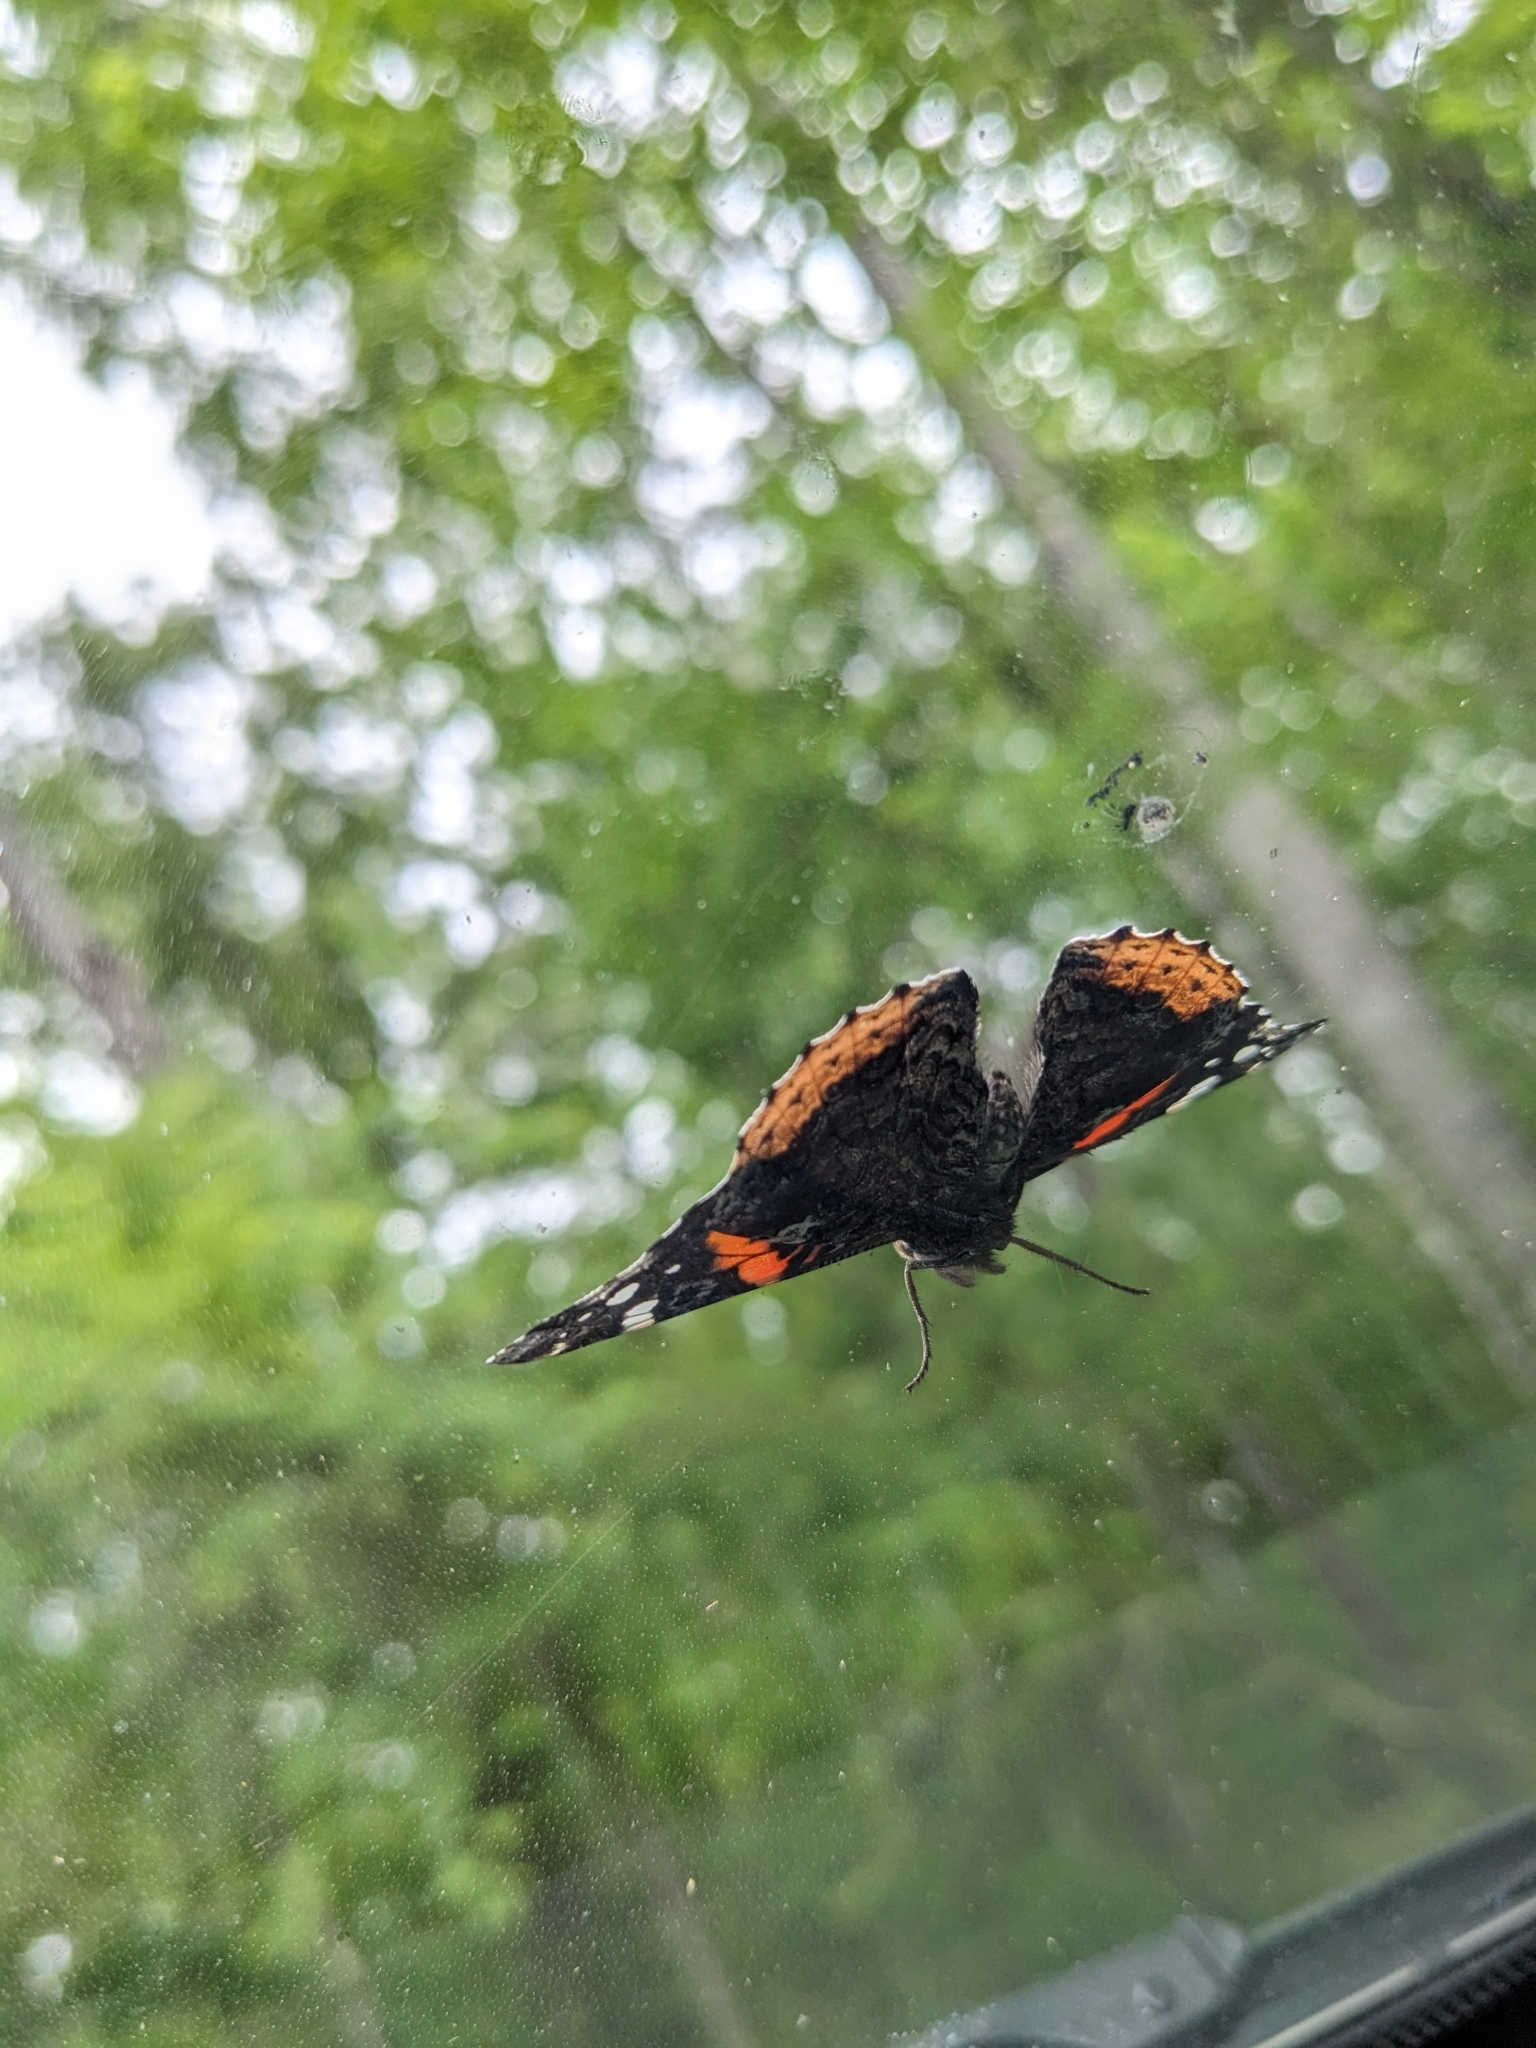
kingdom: Animalia
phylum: Arthropoda
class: Insecta
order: Lepidoptera
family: Nymphalidae
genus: Vanessa
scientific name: Vanessa atalanta
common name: Red admiral
